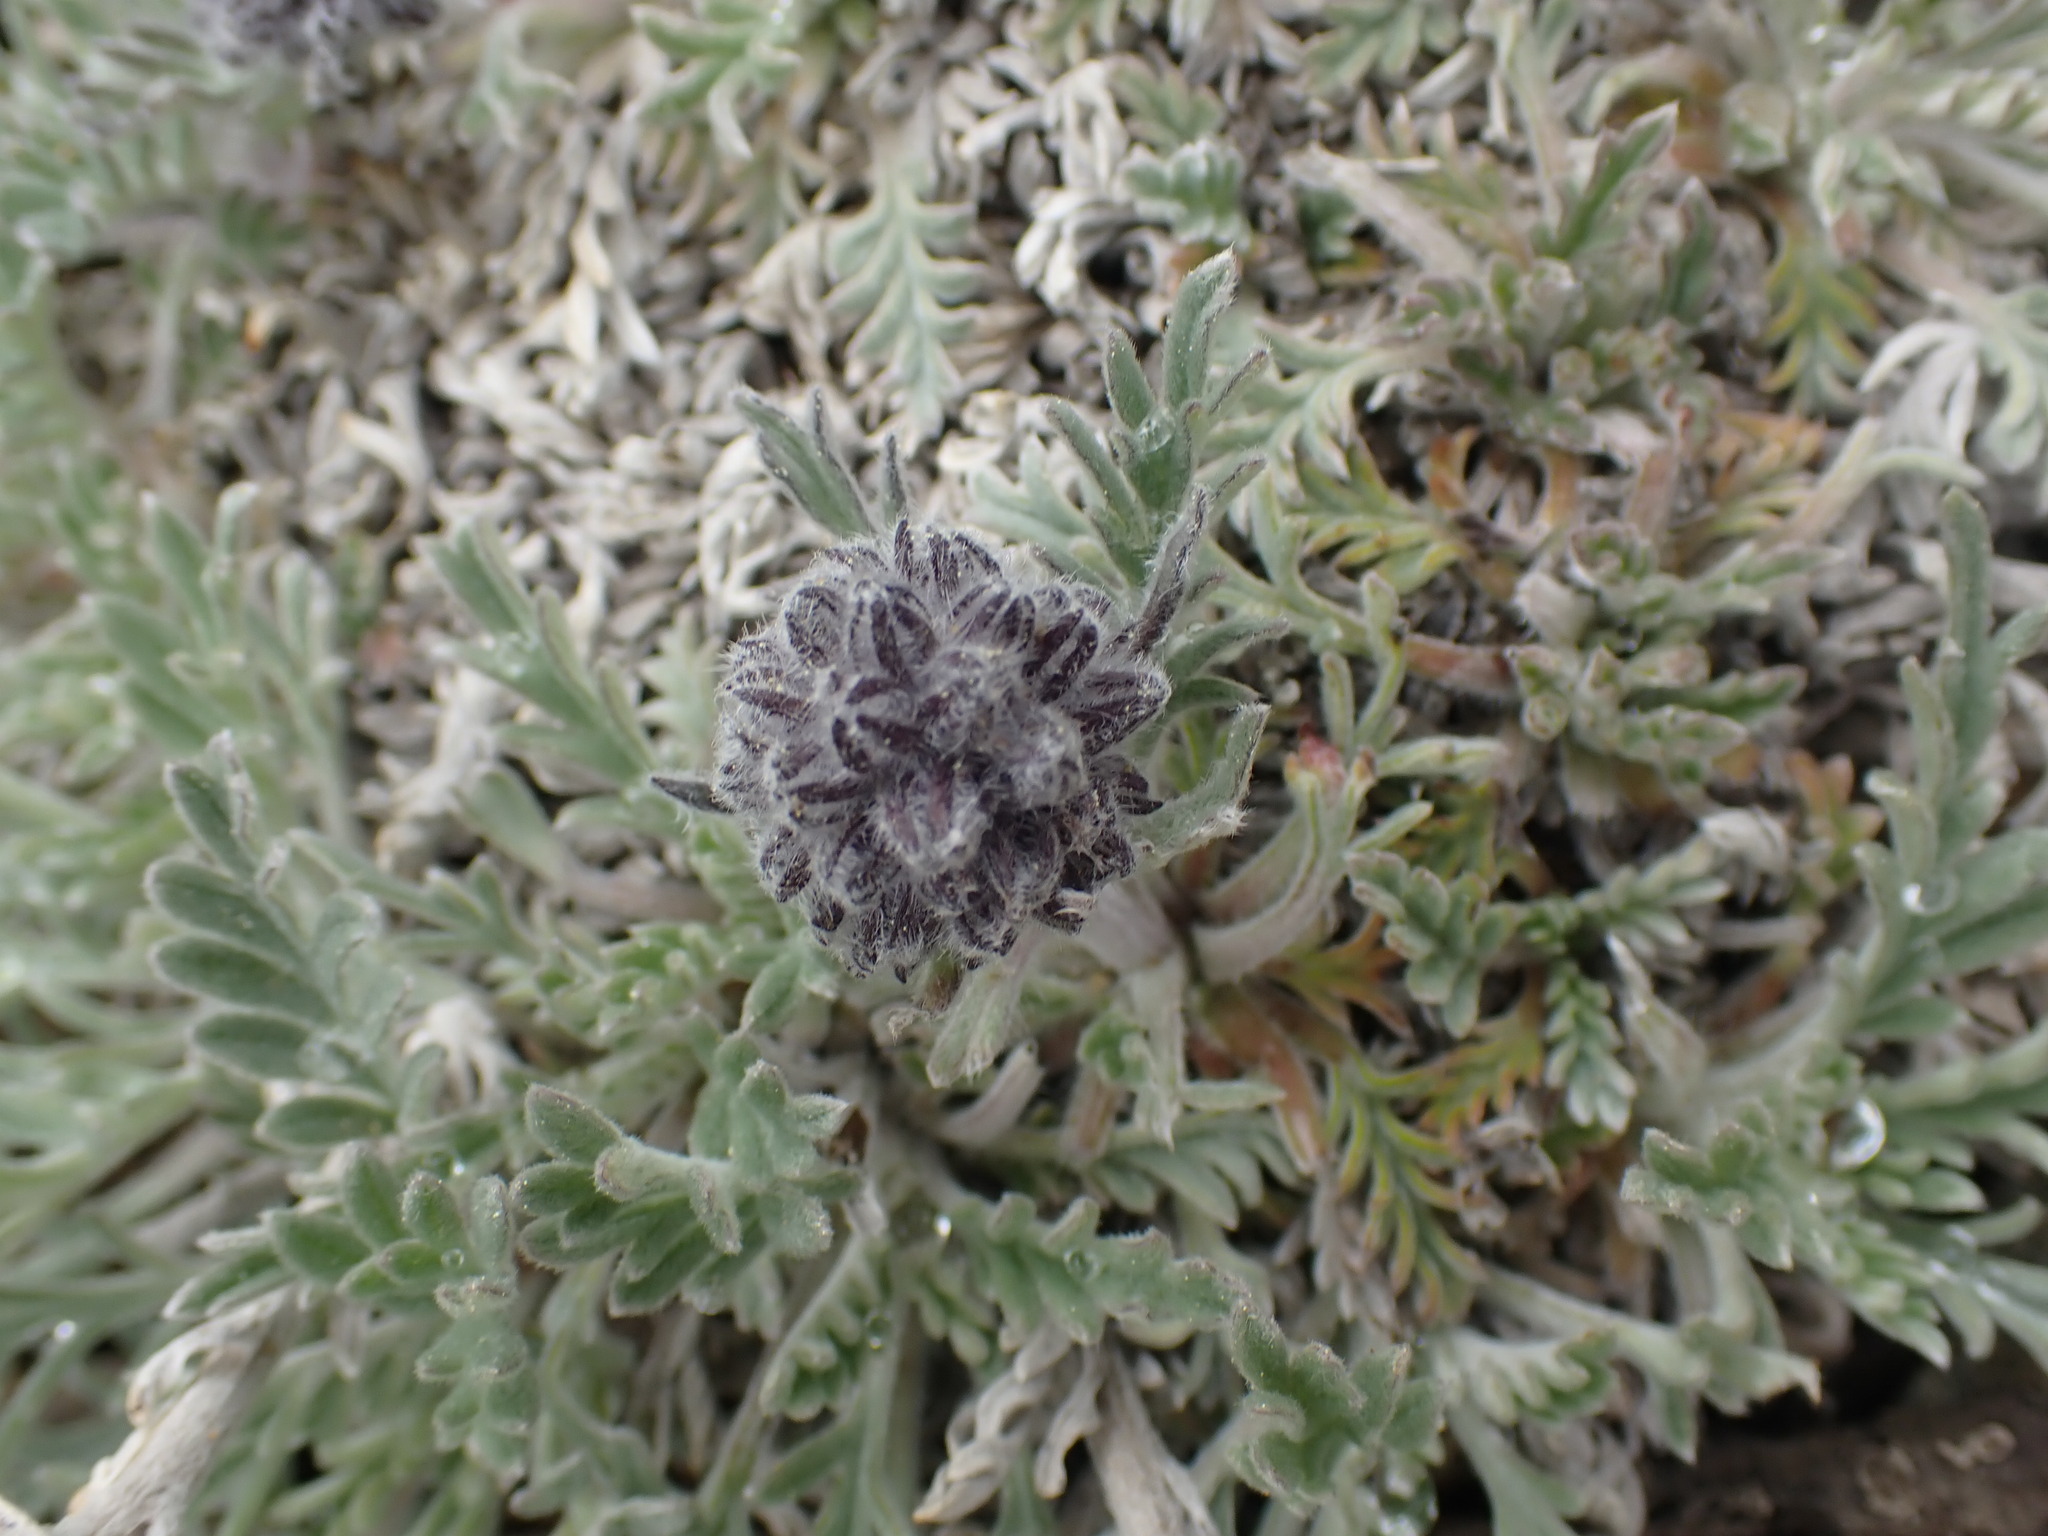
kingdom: Plantae
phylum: Tracheophyta
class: Magnoliopsida
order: Boraginales
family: Hydrophyllaceae
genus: Phacelia
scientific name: Phacelia sericea
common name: Silky phacelia
